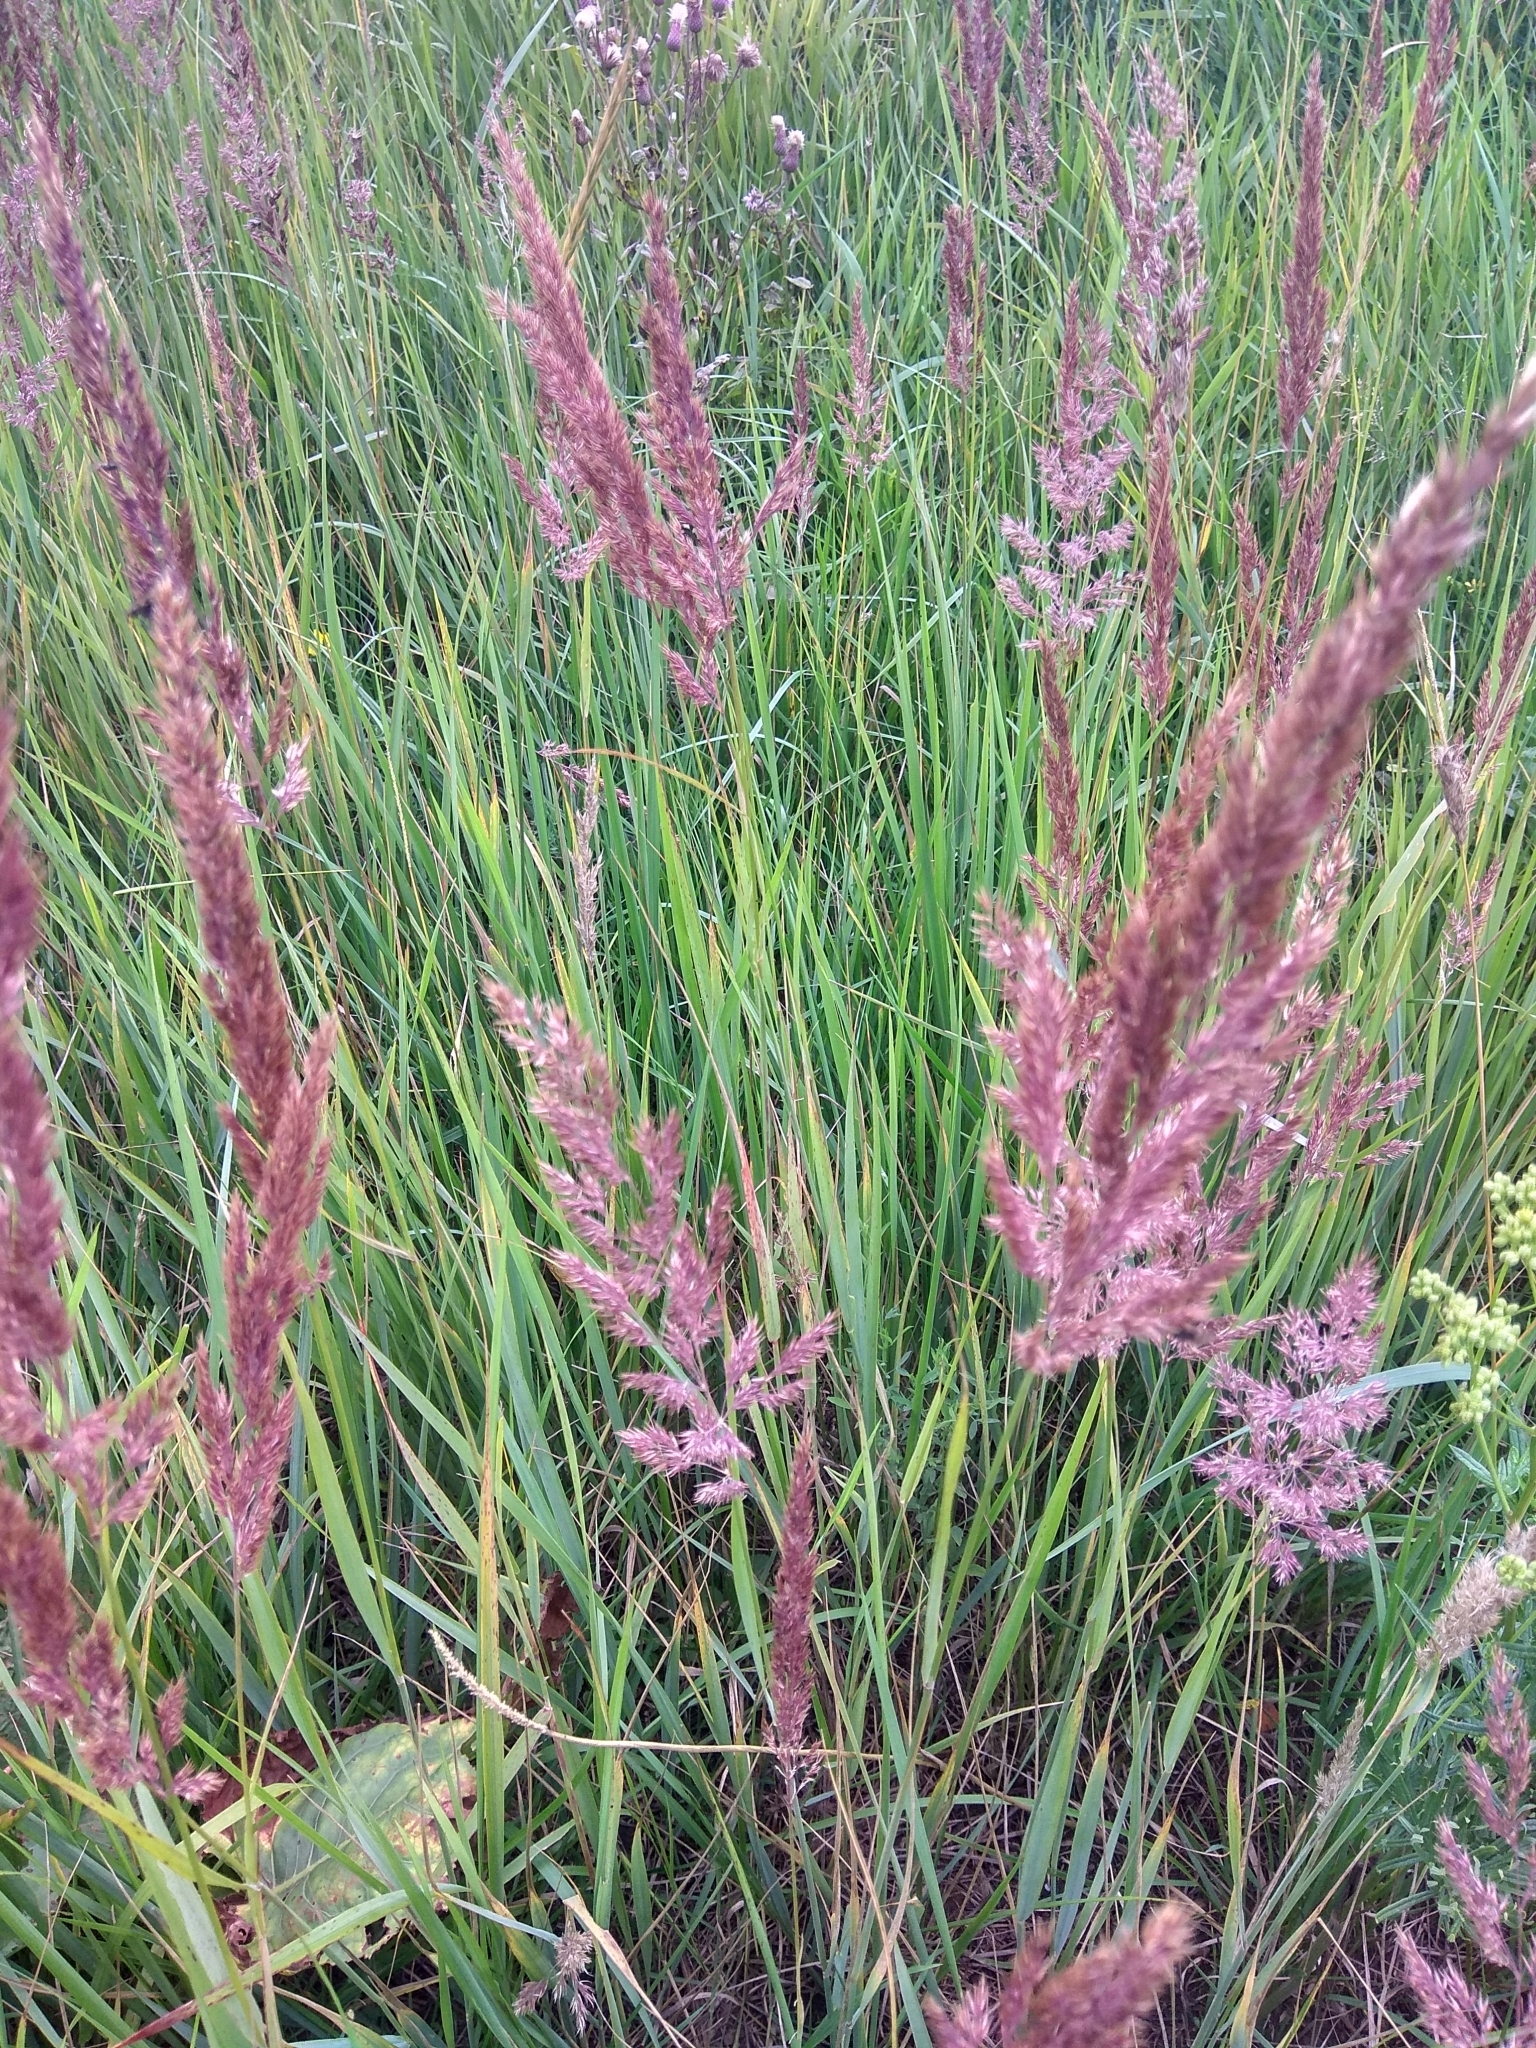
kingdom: Plantae
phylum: Tracheophyta
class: Liliopsida
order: Poales
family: Poaceae
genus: Calamagrostis
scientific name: Calamagrostis epigejos
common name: Wood small-reed
